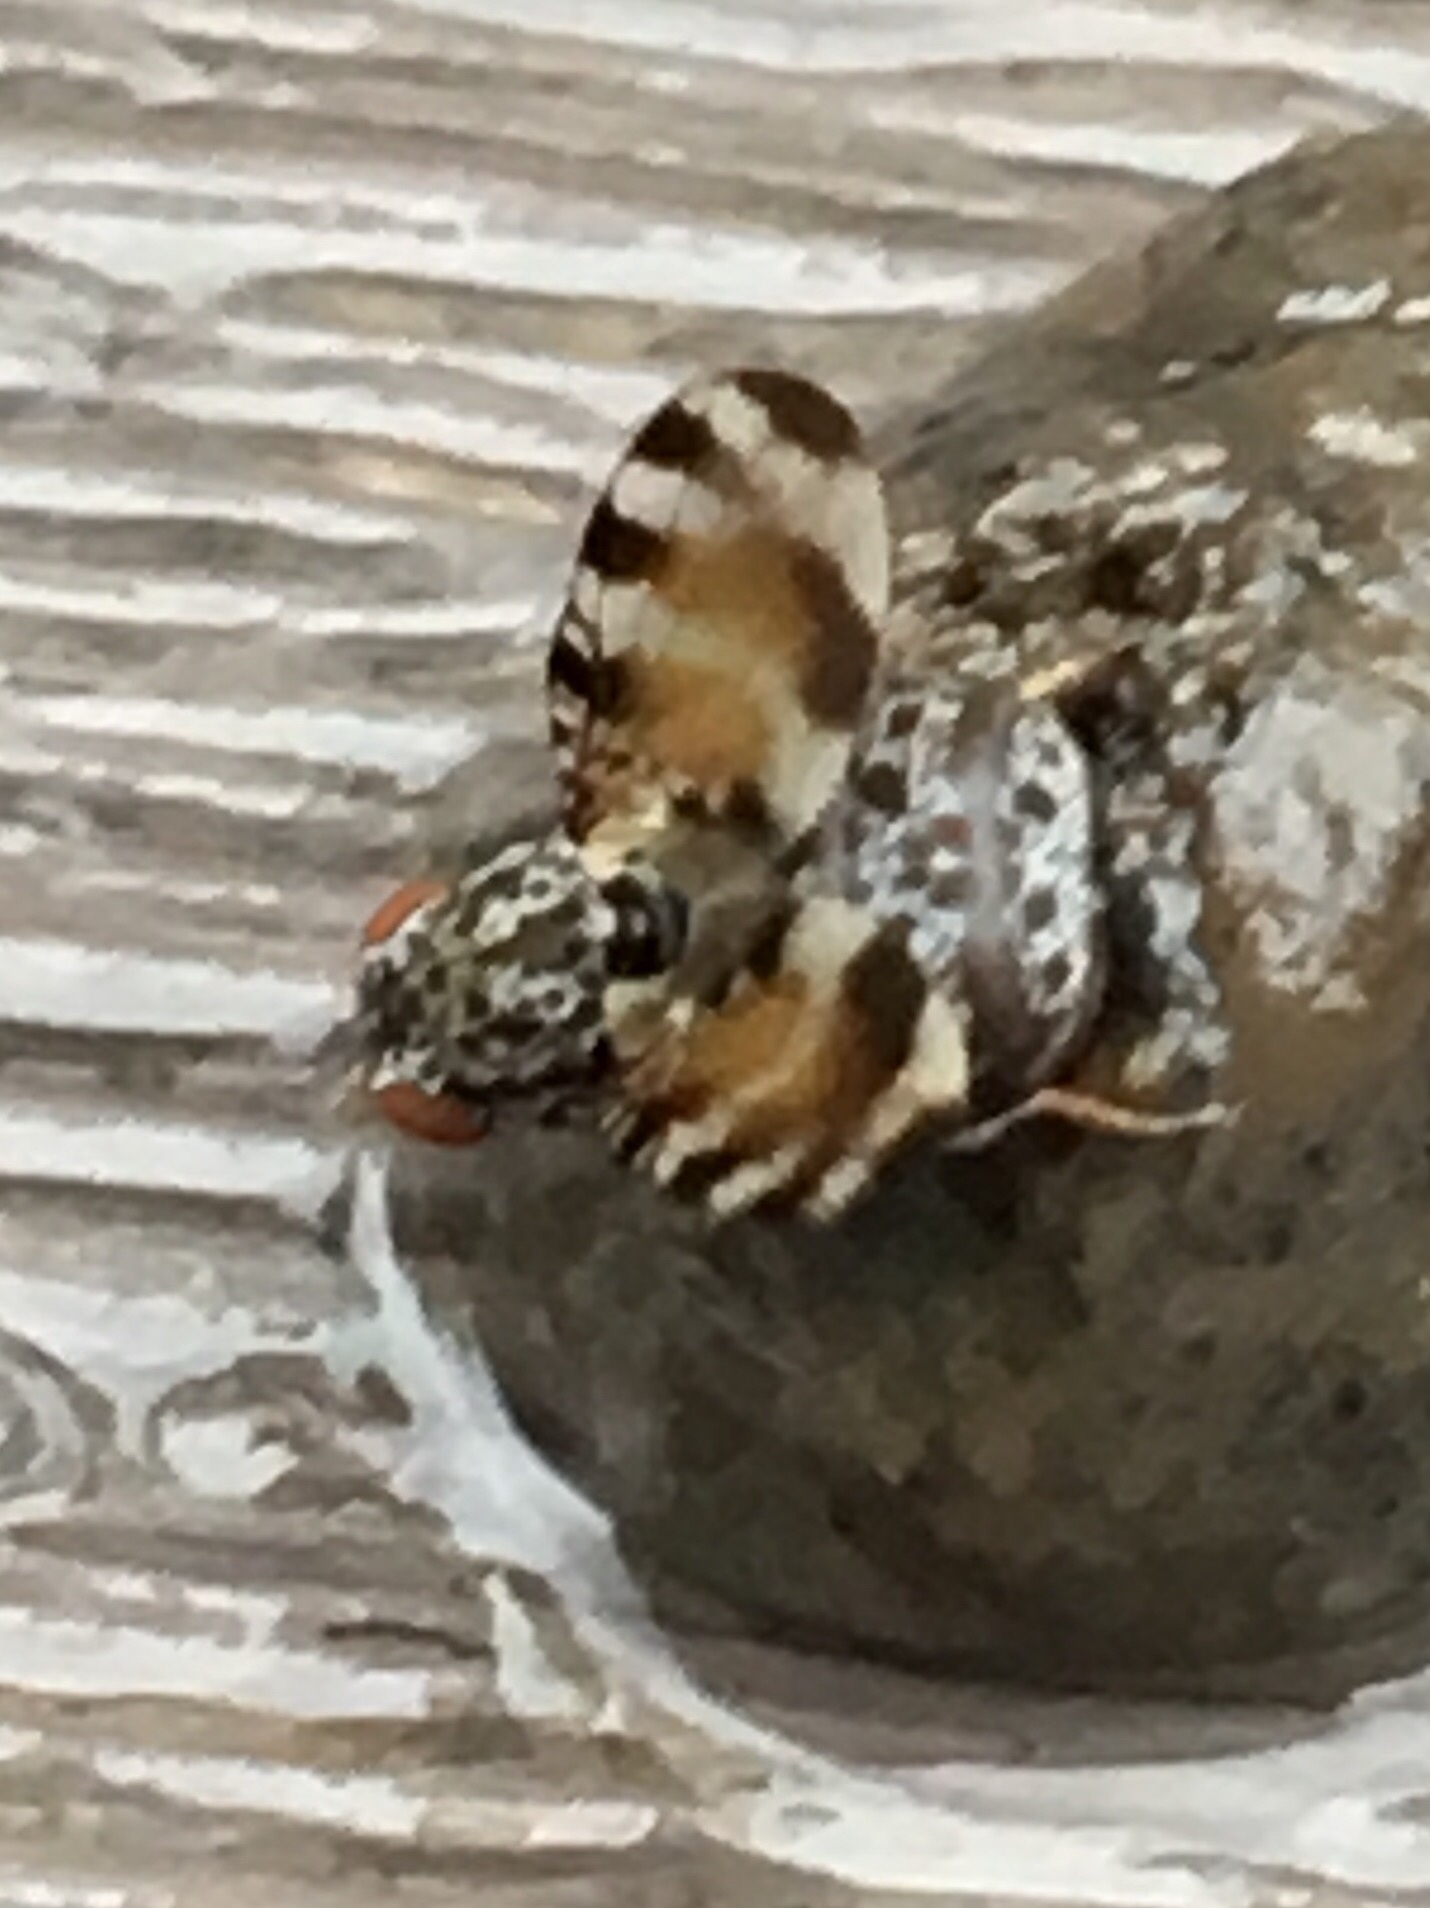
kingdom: Animalia
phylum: Arthropoda
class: Insecta
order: Diptera
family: Ulidiidae
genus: Pseudotephritis
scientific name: Pseudotephritis vau
